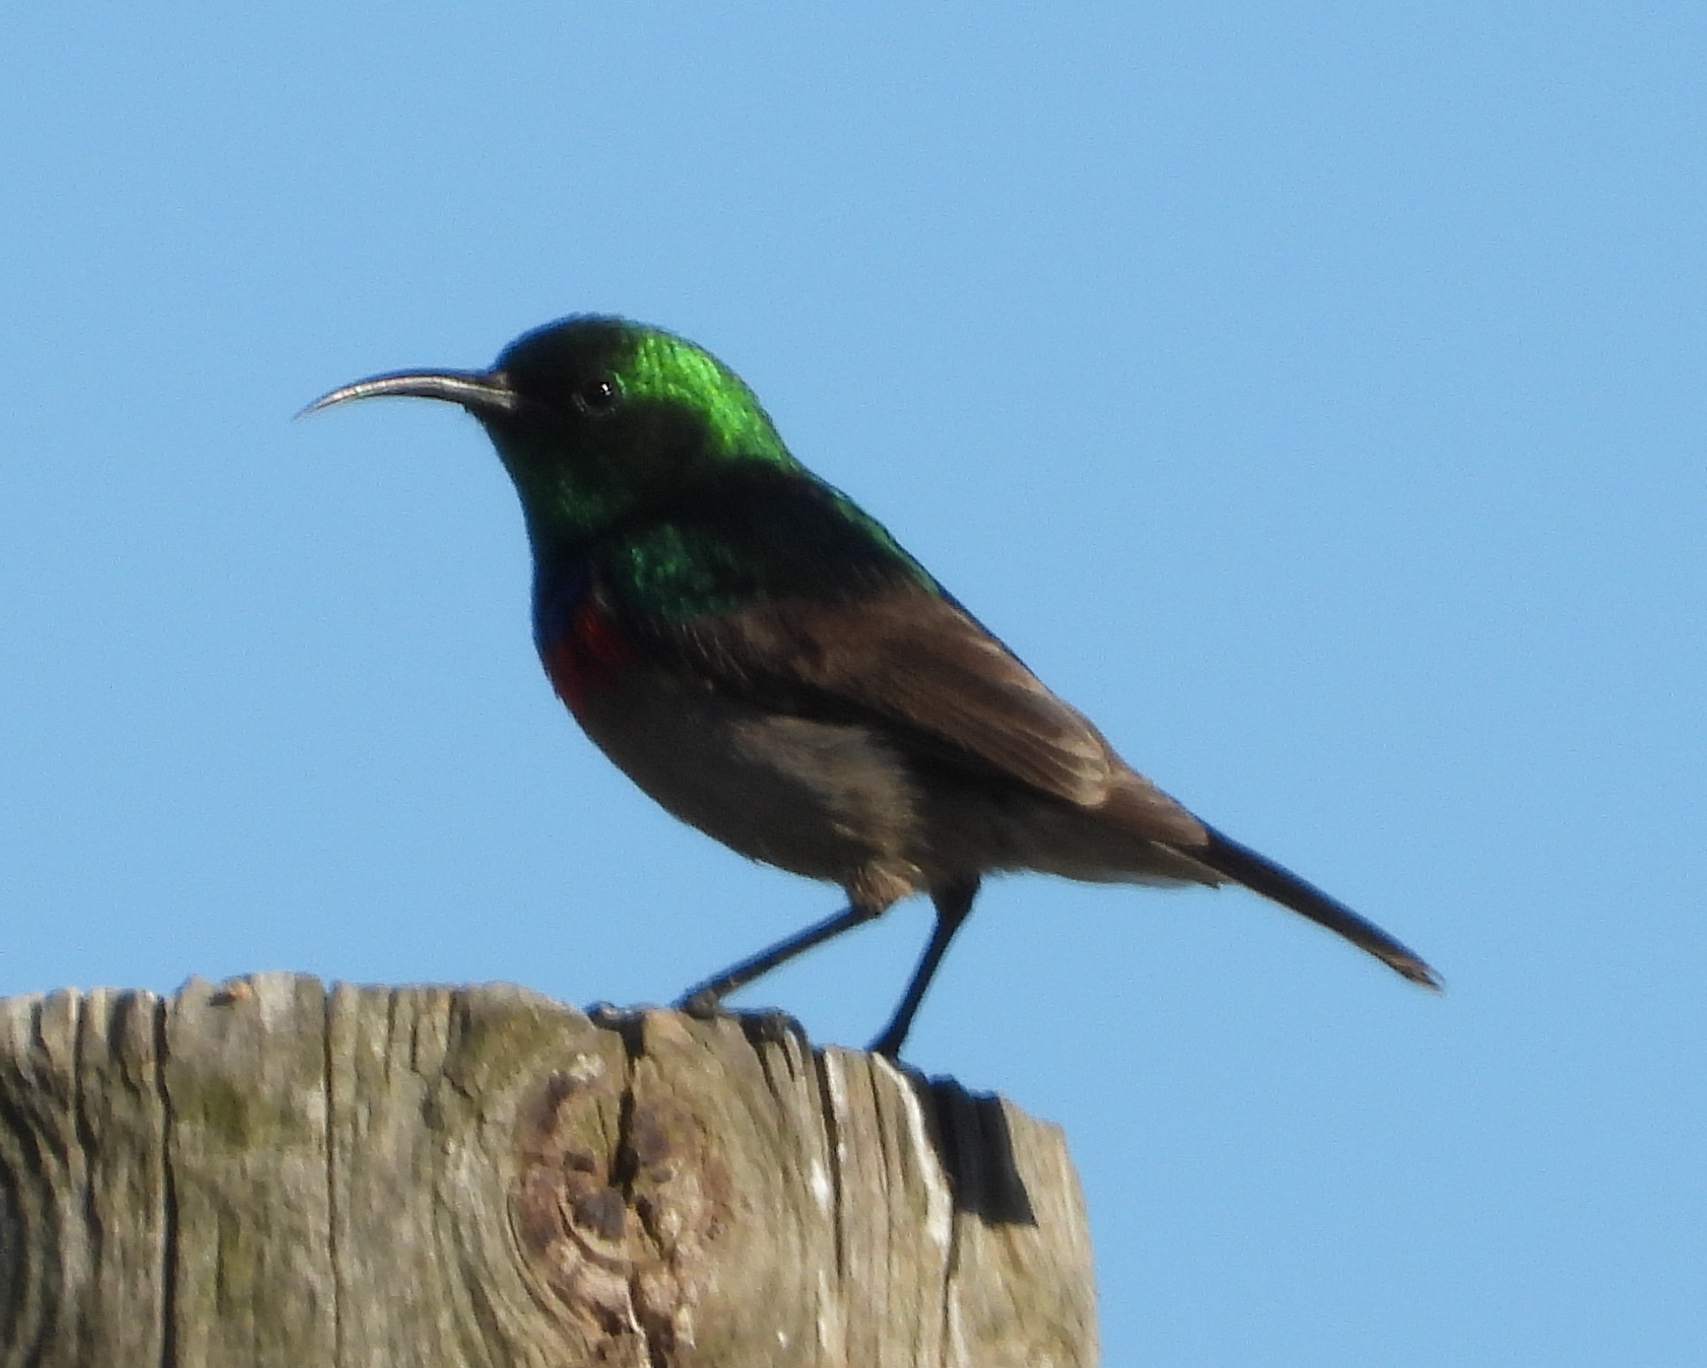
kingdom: Animalia
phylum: Chordata
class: Aves
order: Passeriformes
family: Nectariniidae
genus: Cinnyris
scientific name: Cinnyris chalybeus
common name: Southern double-collared sunbird
